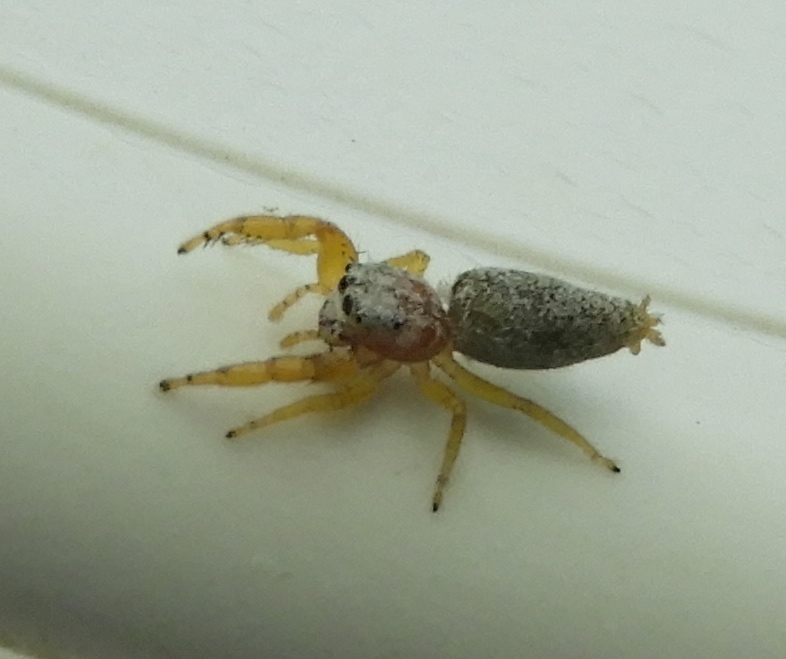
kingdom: Animalia
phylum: Arthropoda
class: Arachnida
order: Araneae
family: Salticidae
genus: Hentzia
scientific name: Hentzia palmarum
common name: Common hentz jumping spider
